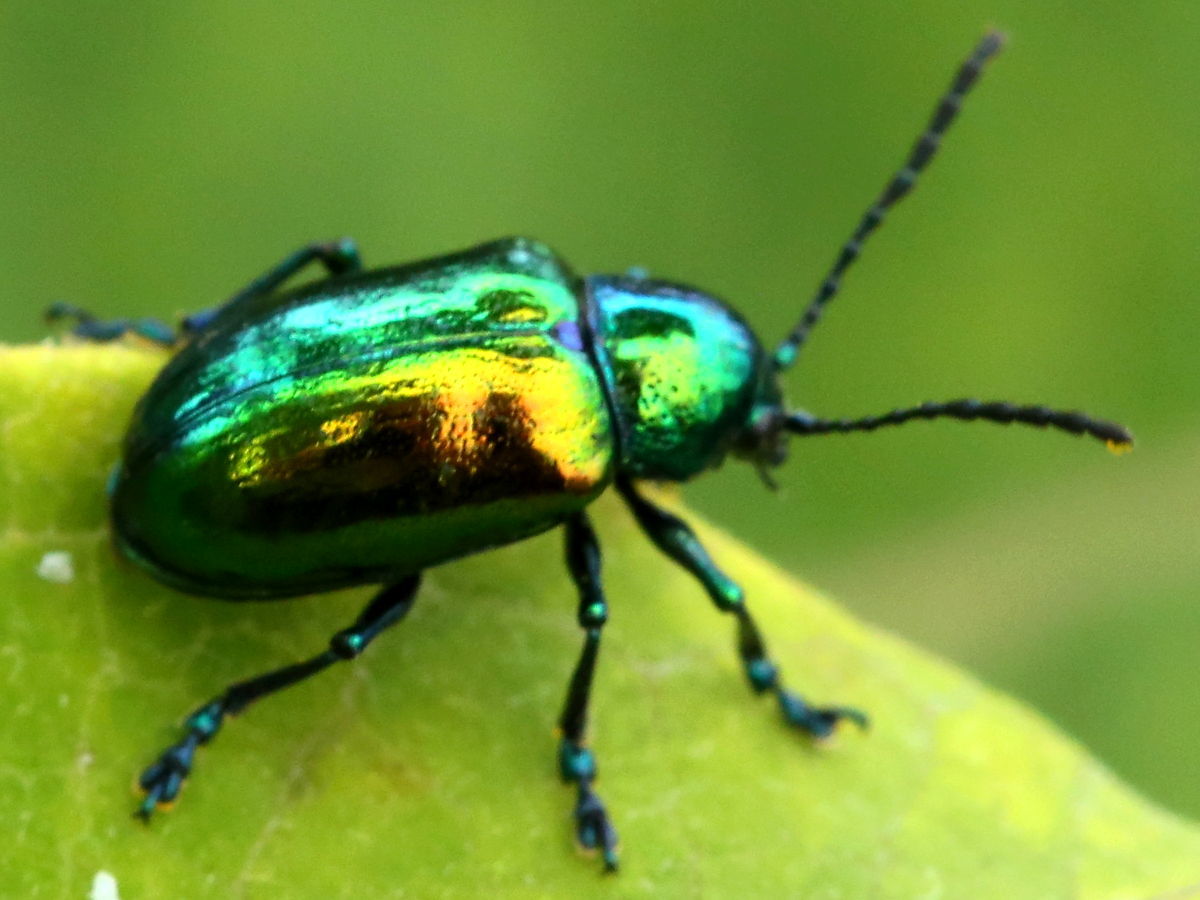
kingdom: Animalia
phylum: Arthropoda
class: Insecta
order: Coleoptera
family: Chrysomelidae
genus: Chrysochus
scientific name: Chrysochus auratus
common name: Dogbane leaf beetle
